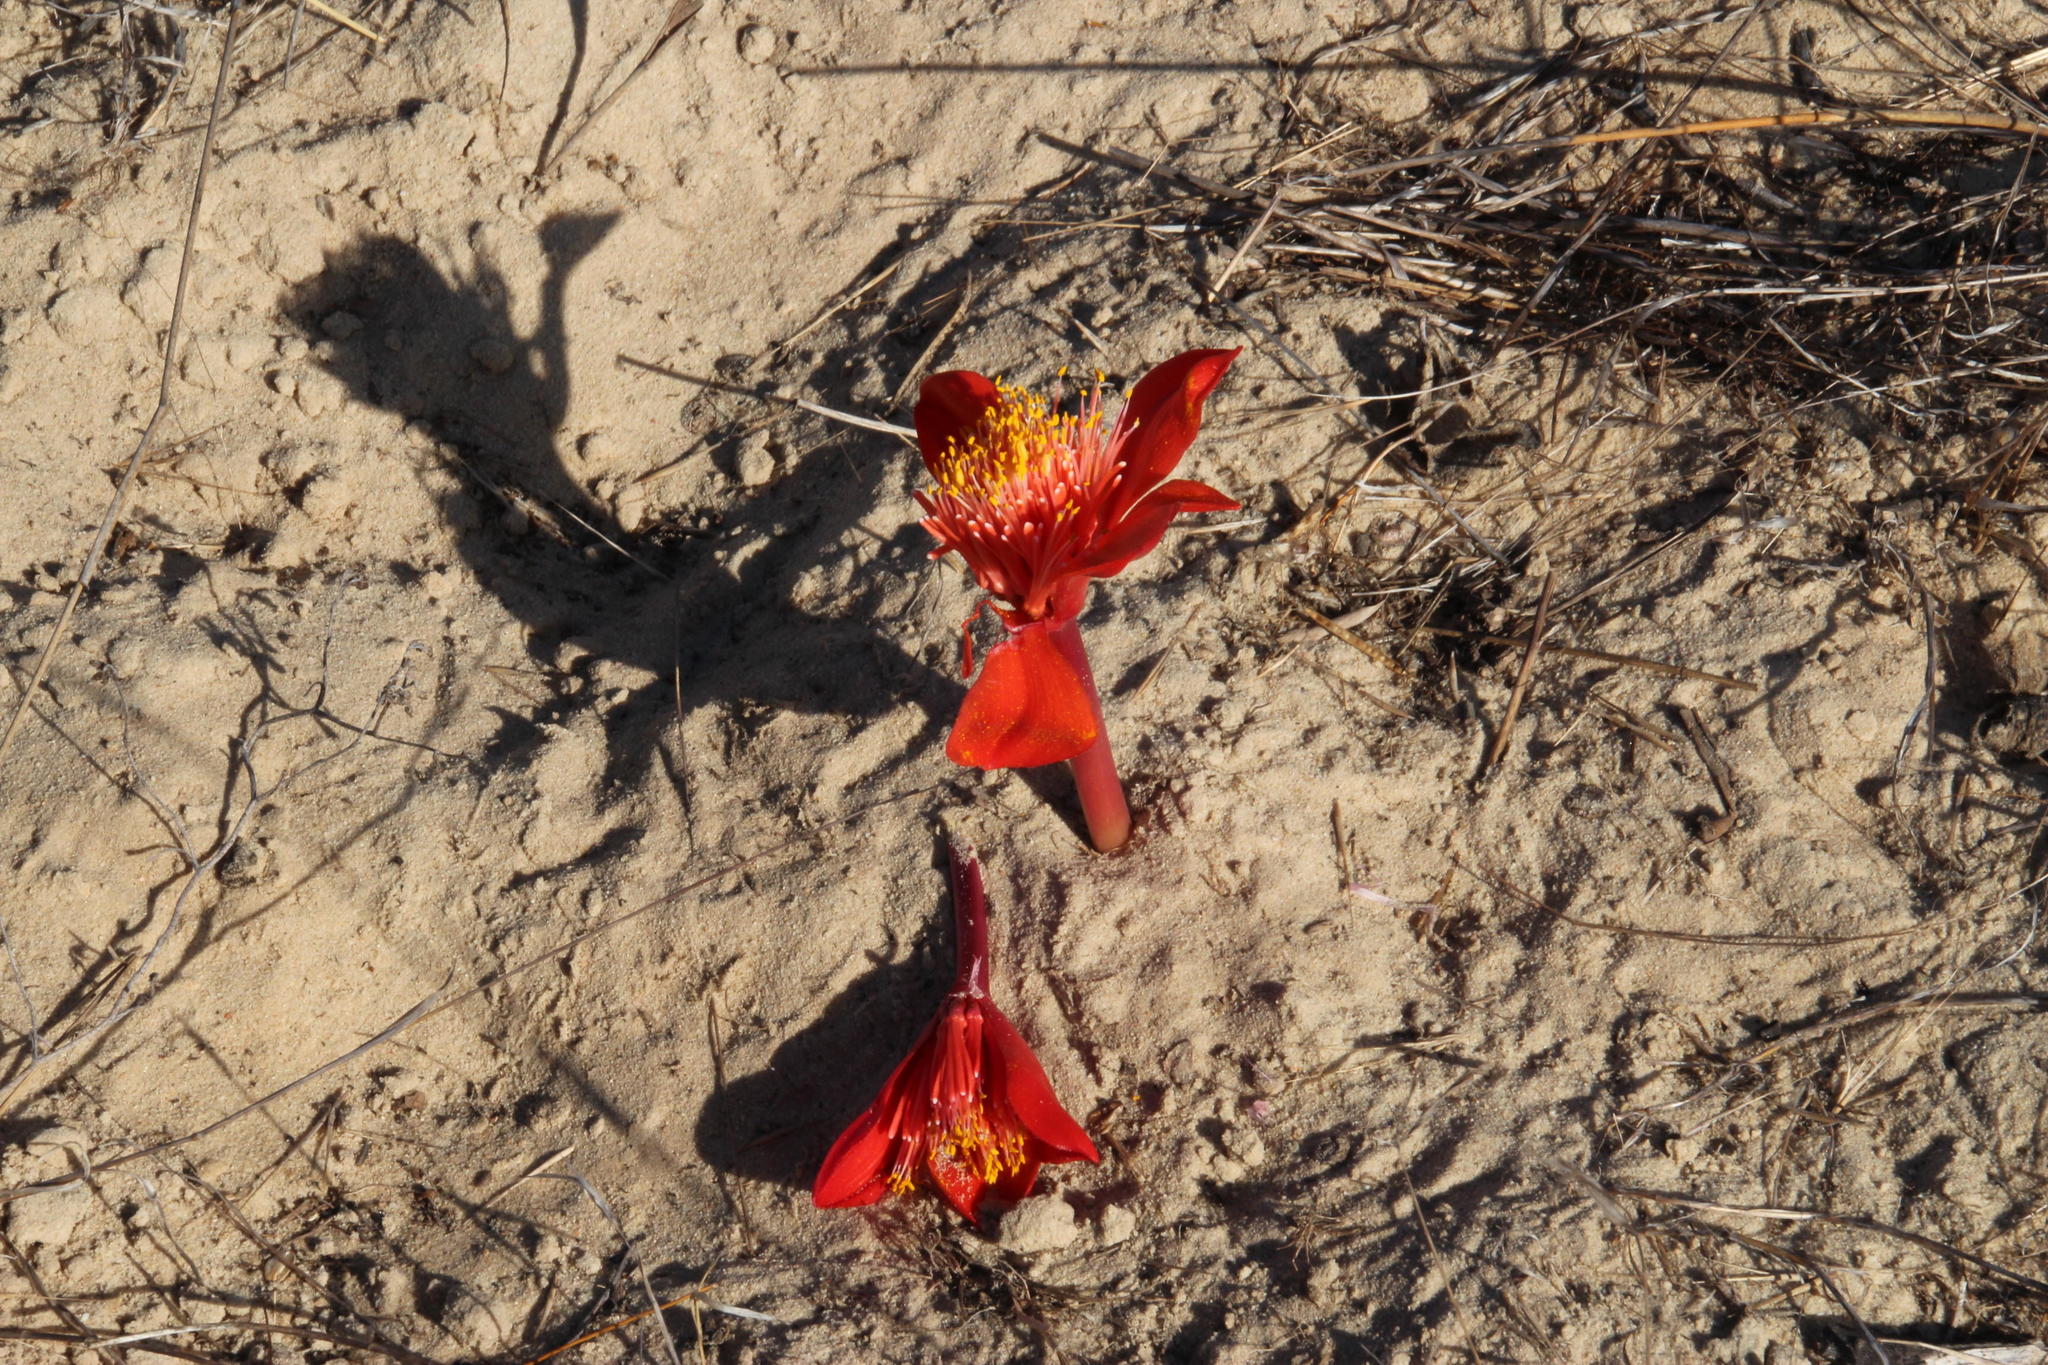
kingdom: Plantae
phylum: Tracheophyta
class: Liliopsida
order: Asparagales
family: Amaryllidaceae
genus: Haemanthus
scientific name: Haemanthus pubescens
